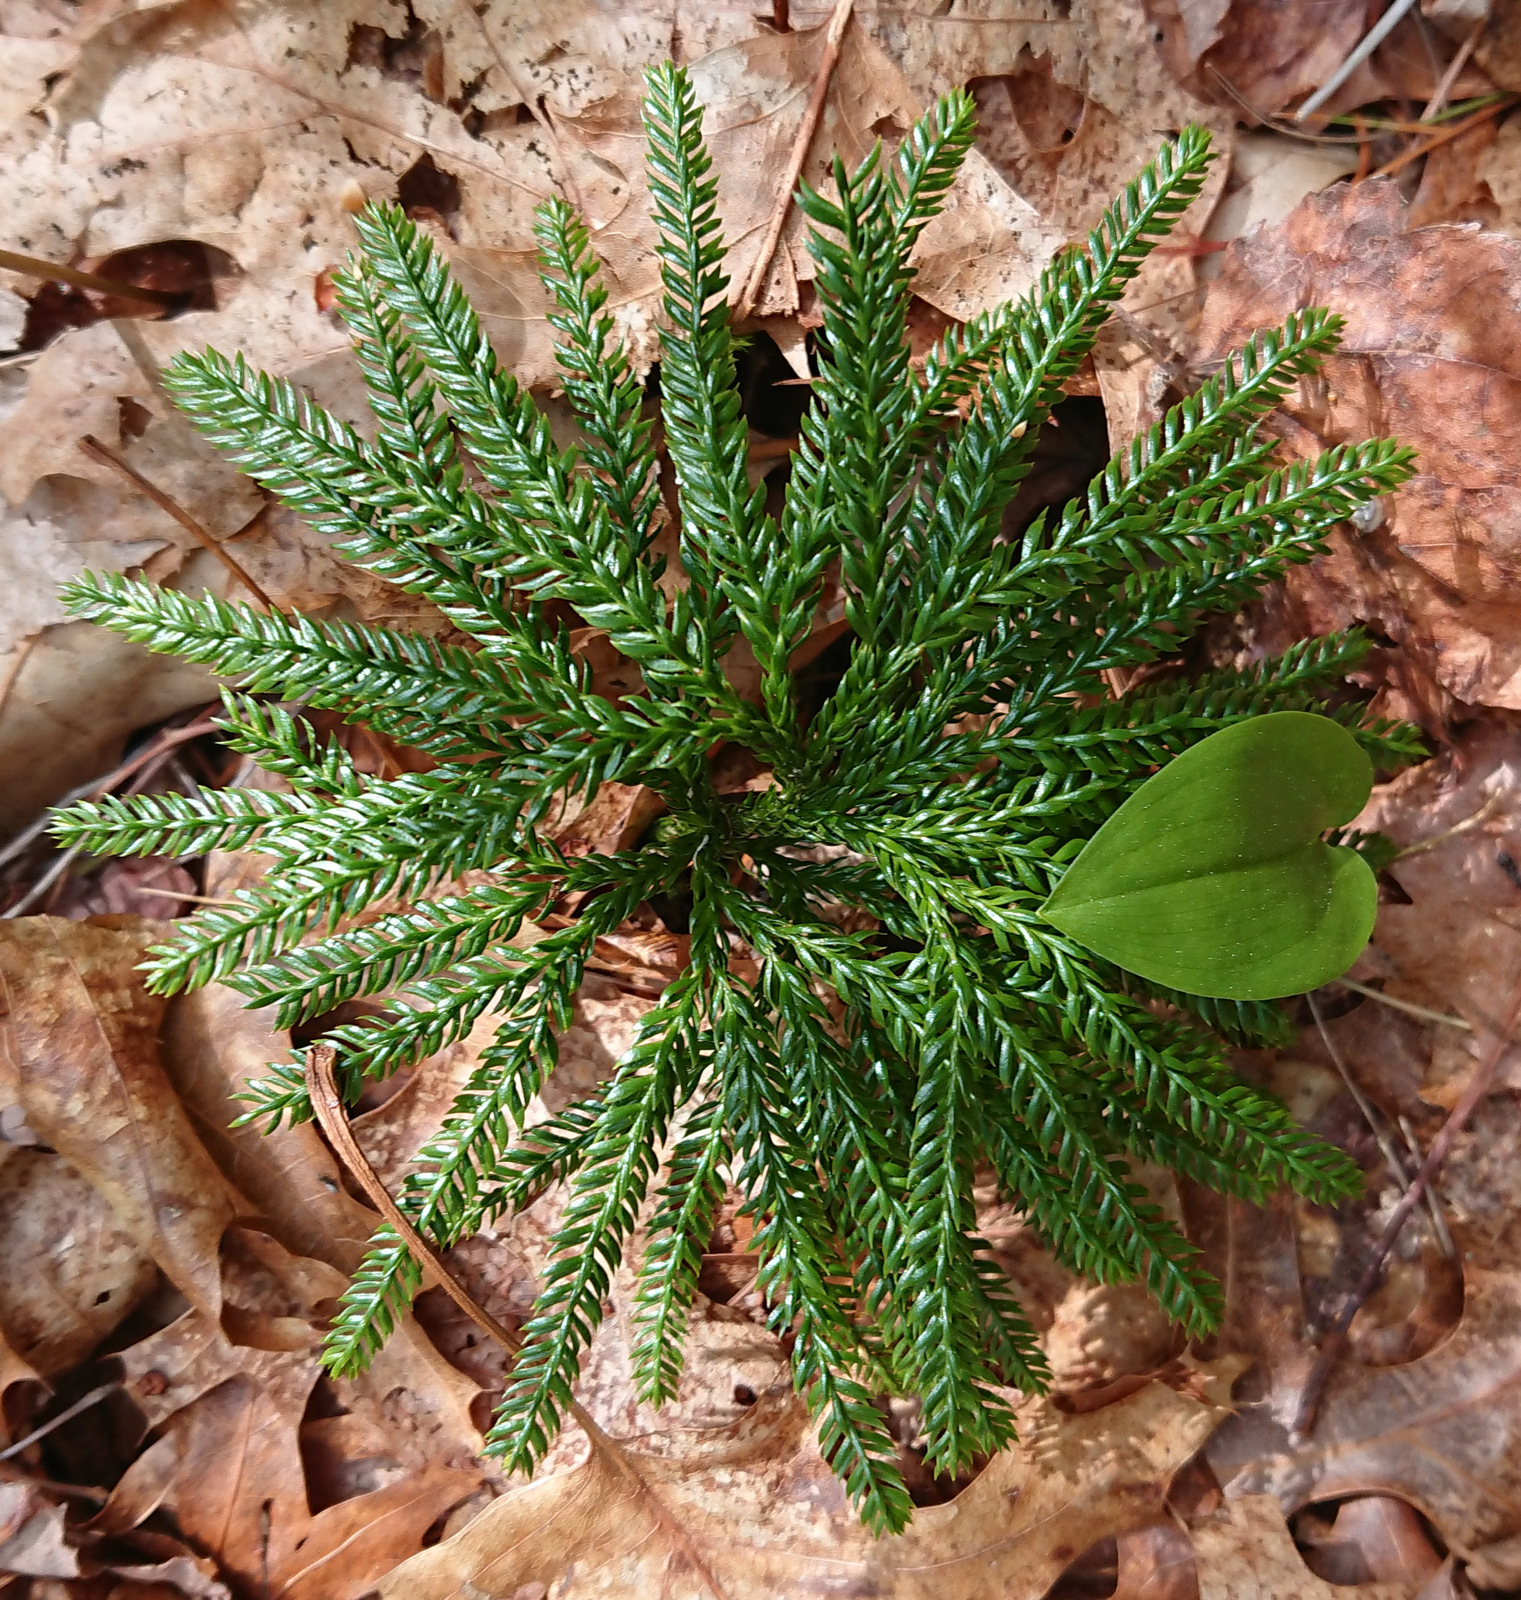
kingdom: Plantae
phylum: Tracheophyta
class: Lycopodiopsida
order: Lycopodiales
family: Lycopodiaceae
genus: Dendrolycopodium
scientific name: Dendrolycopodium obscurum
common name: Common ground-pine
